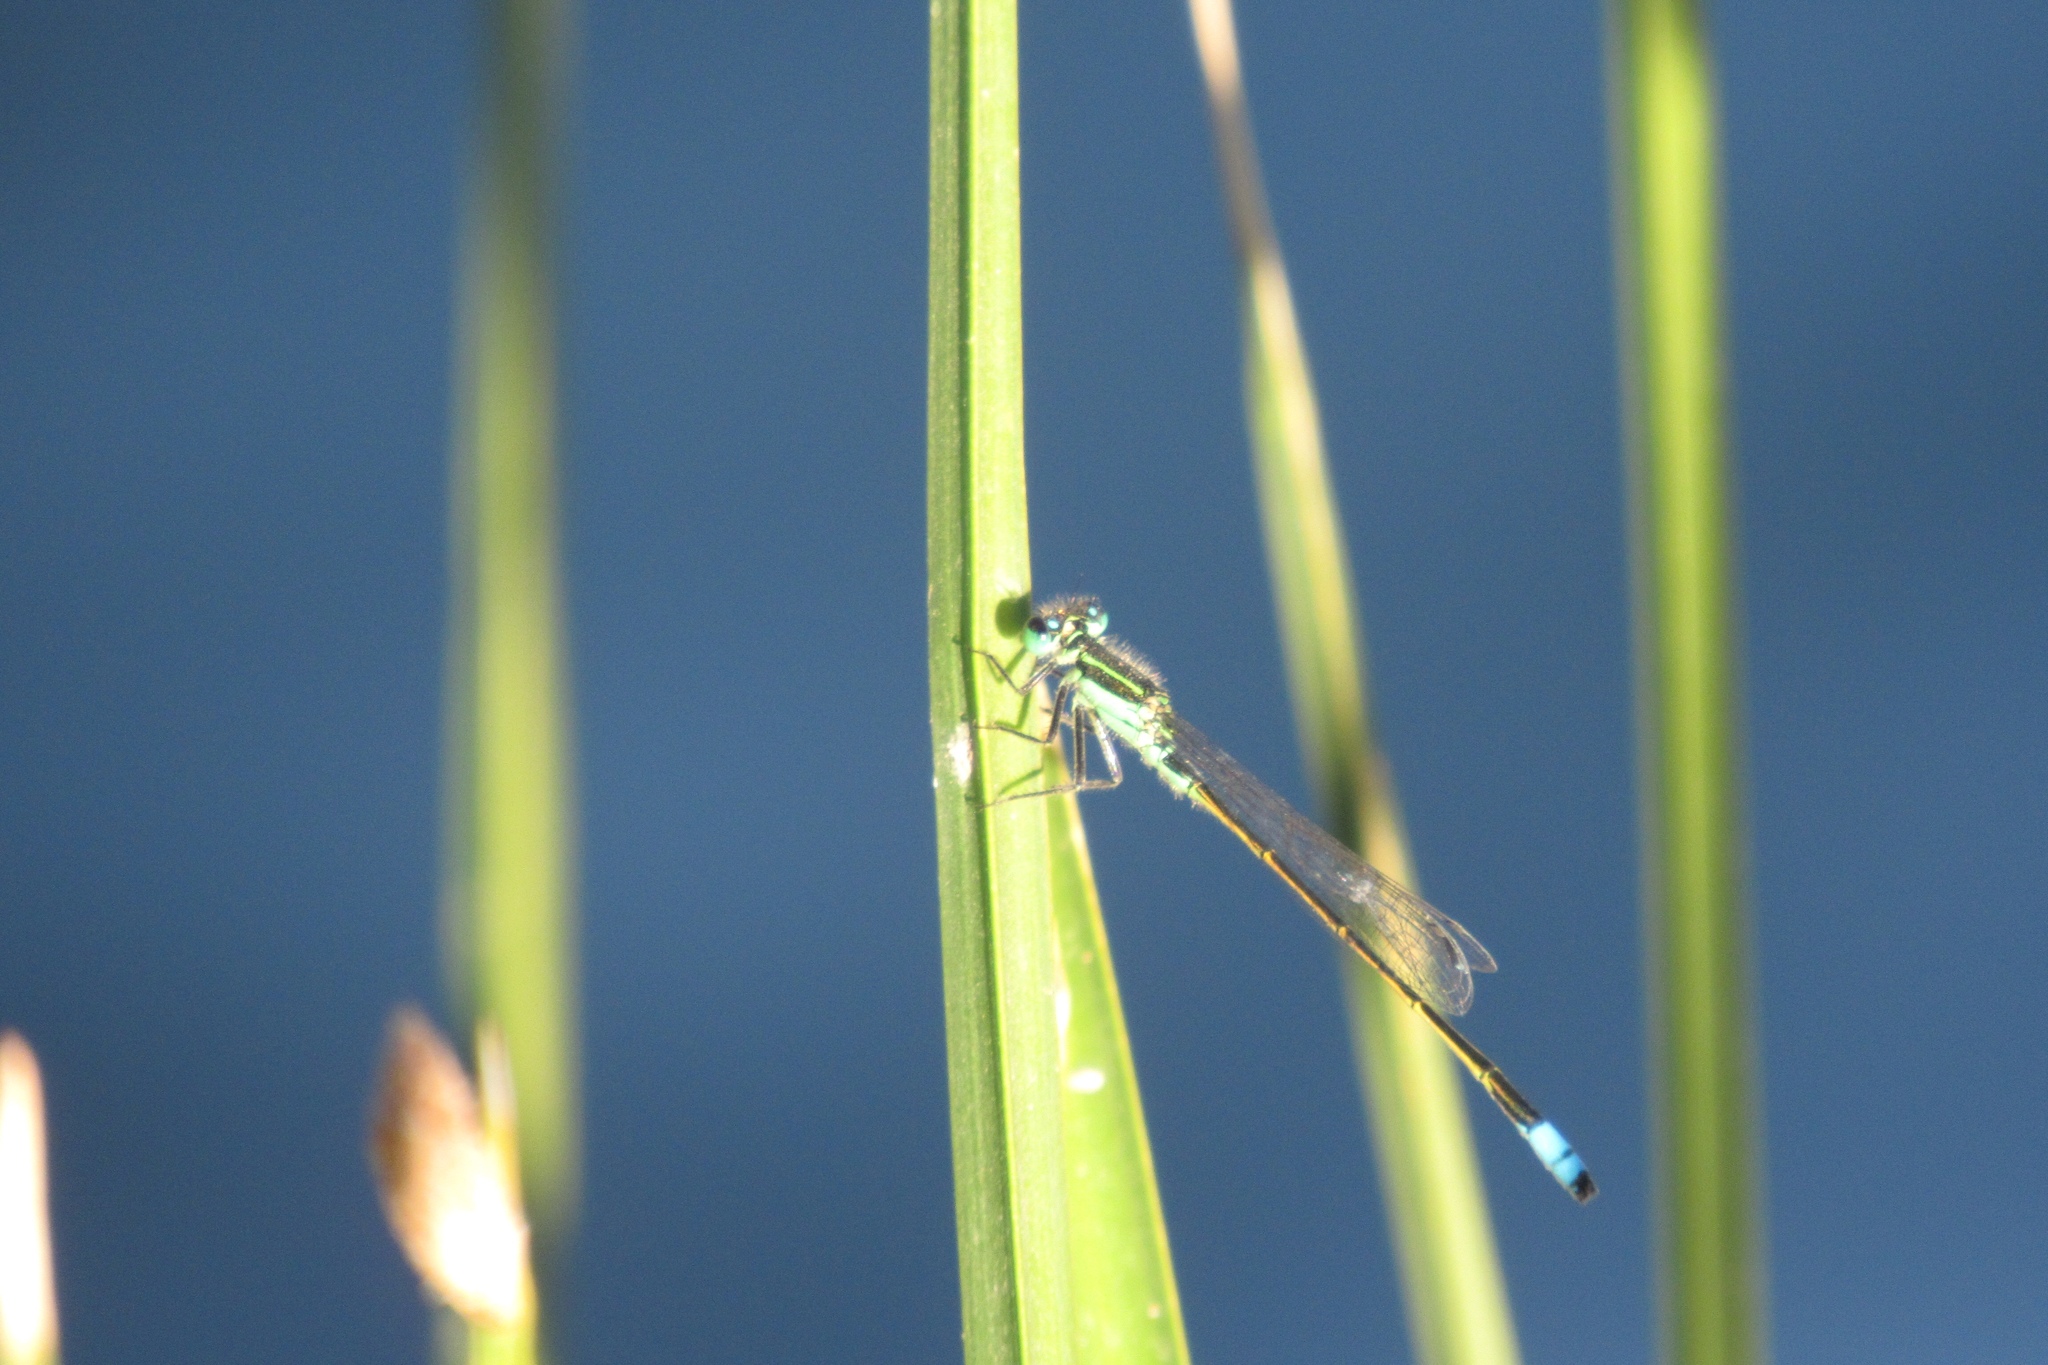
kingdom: Animalia
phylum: Arthropoda
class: Insecta
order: Odonata
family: Coenagrionidae
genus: Ischnura
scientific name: Ischnura ramburii
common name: Rambur's forktail
